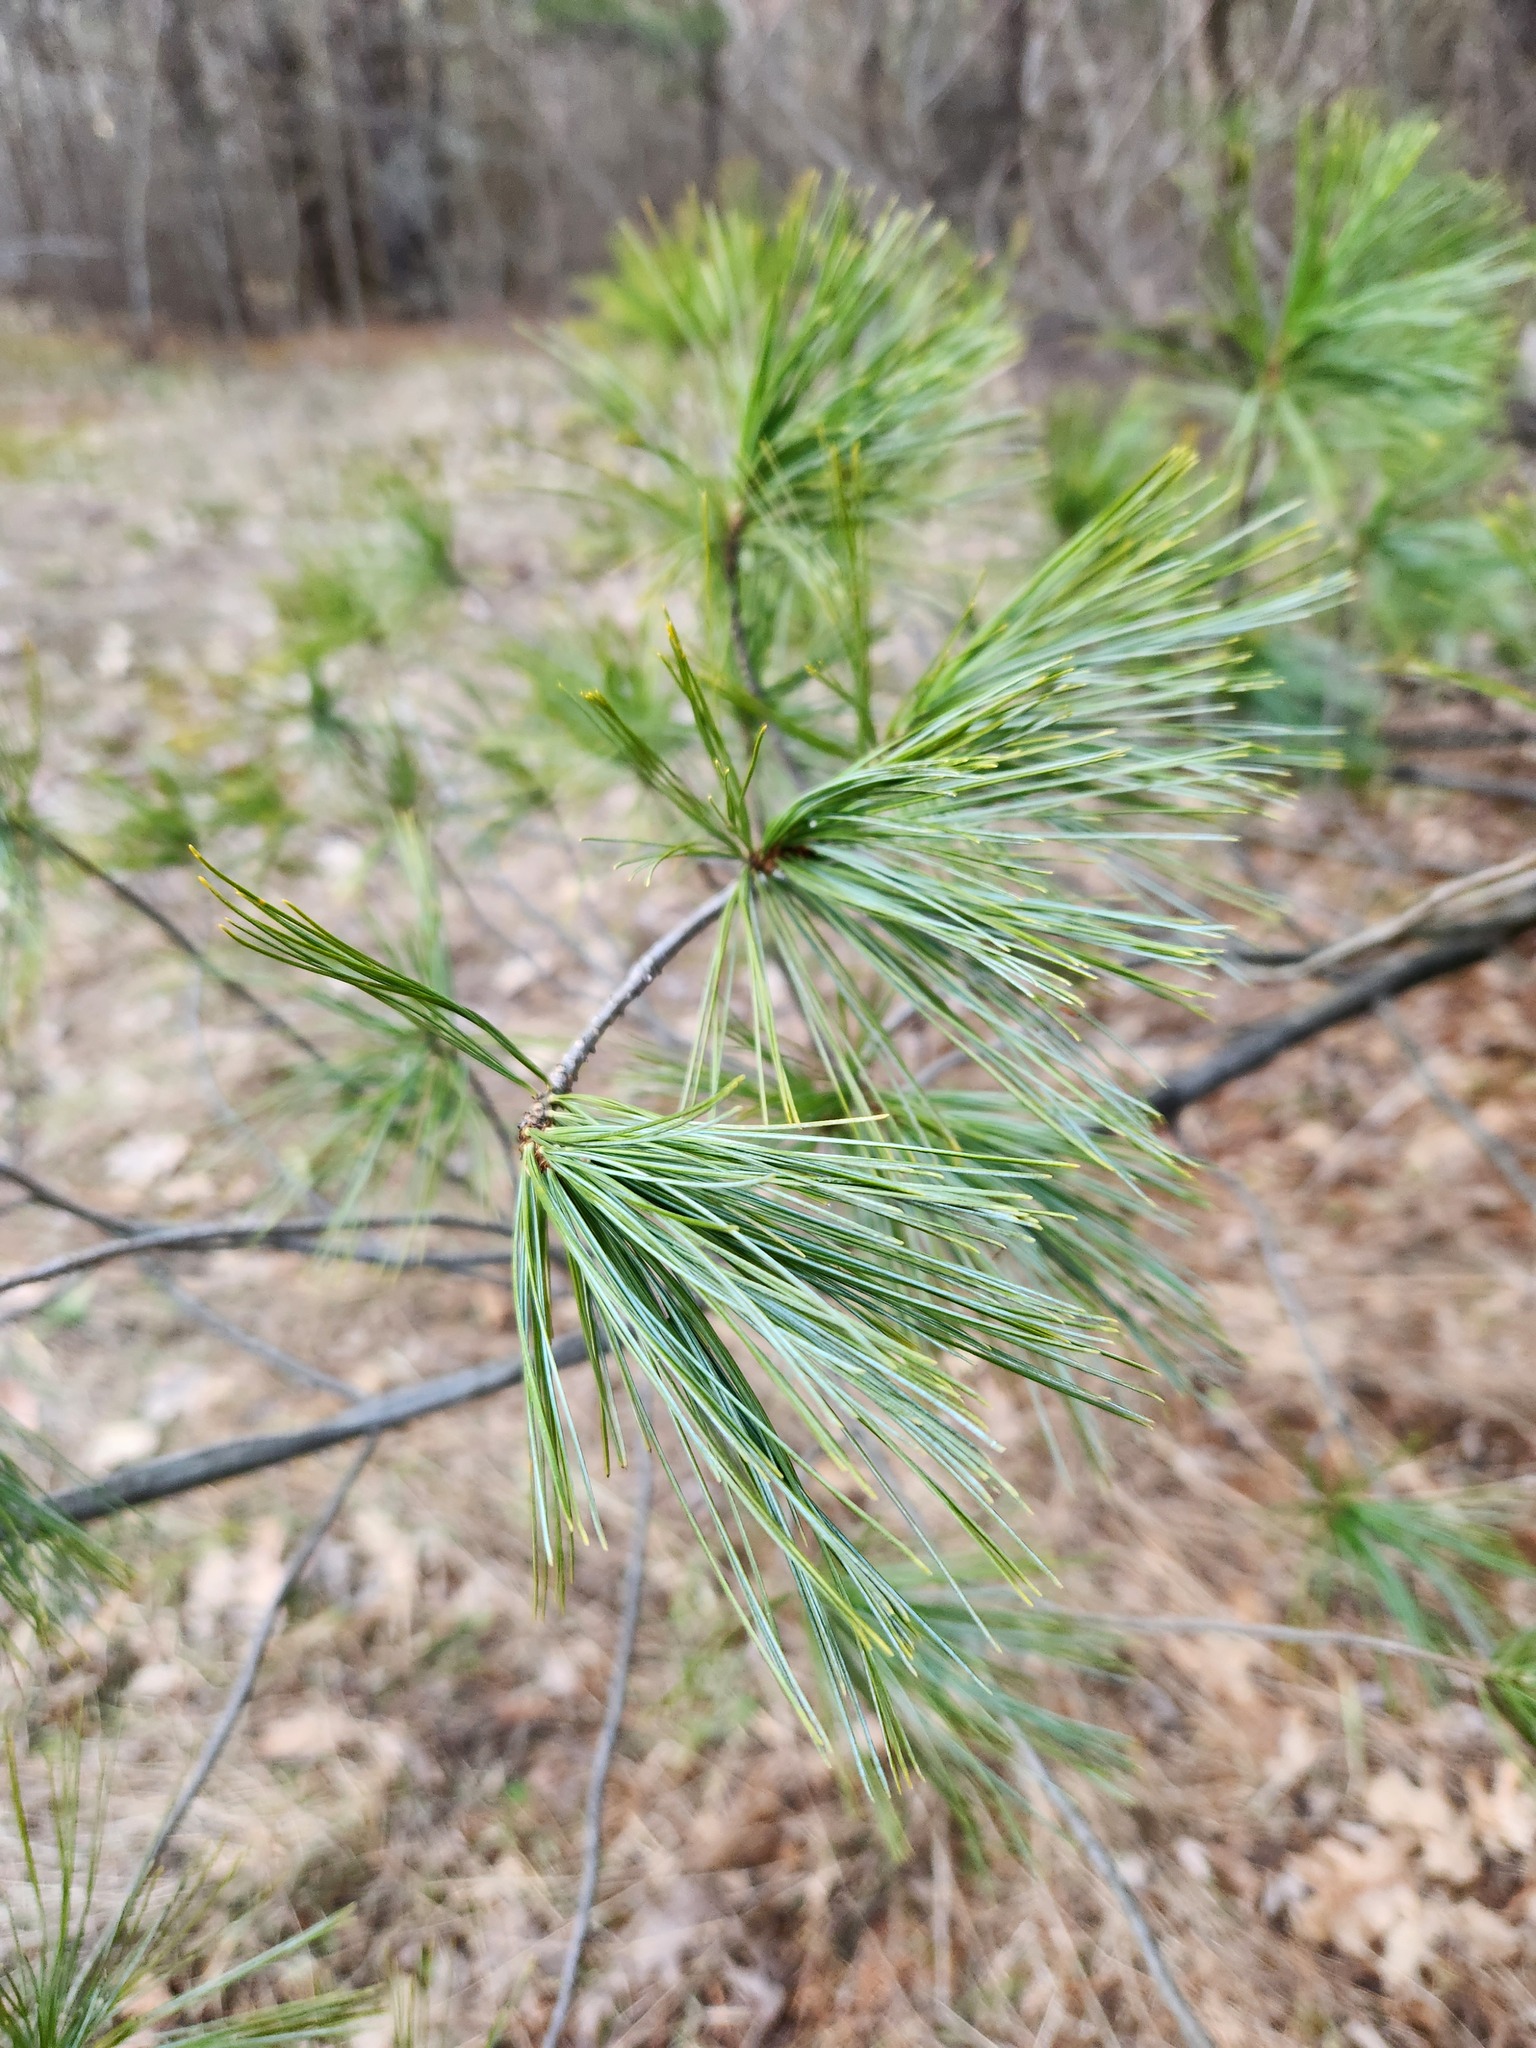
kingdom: Plantae
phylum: Tracheophyta
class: Pinopsida
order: Pinales
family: Pinaceae
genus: Pinus
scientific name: Pinus strobus
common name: Weymouth pine
